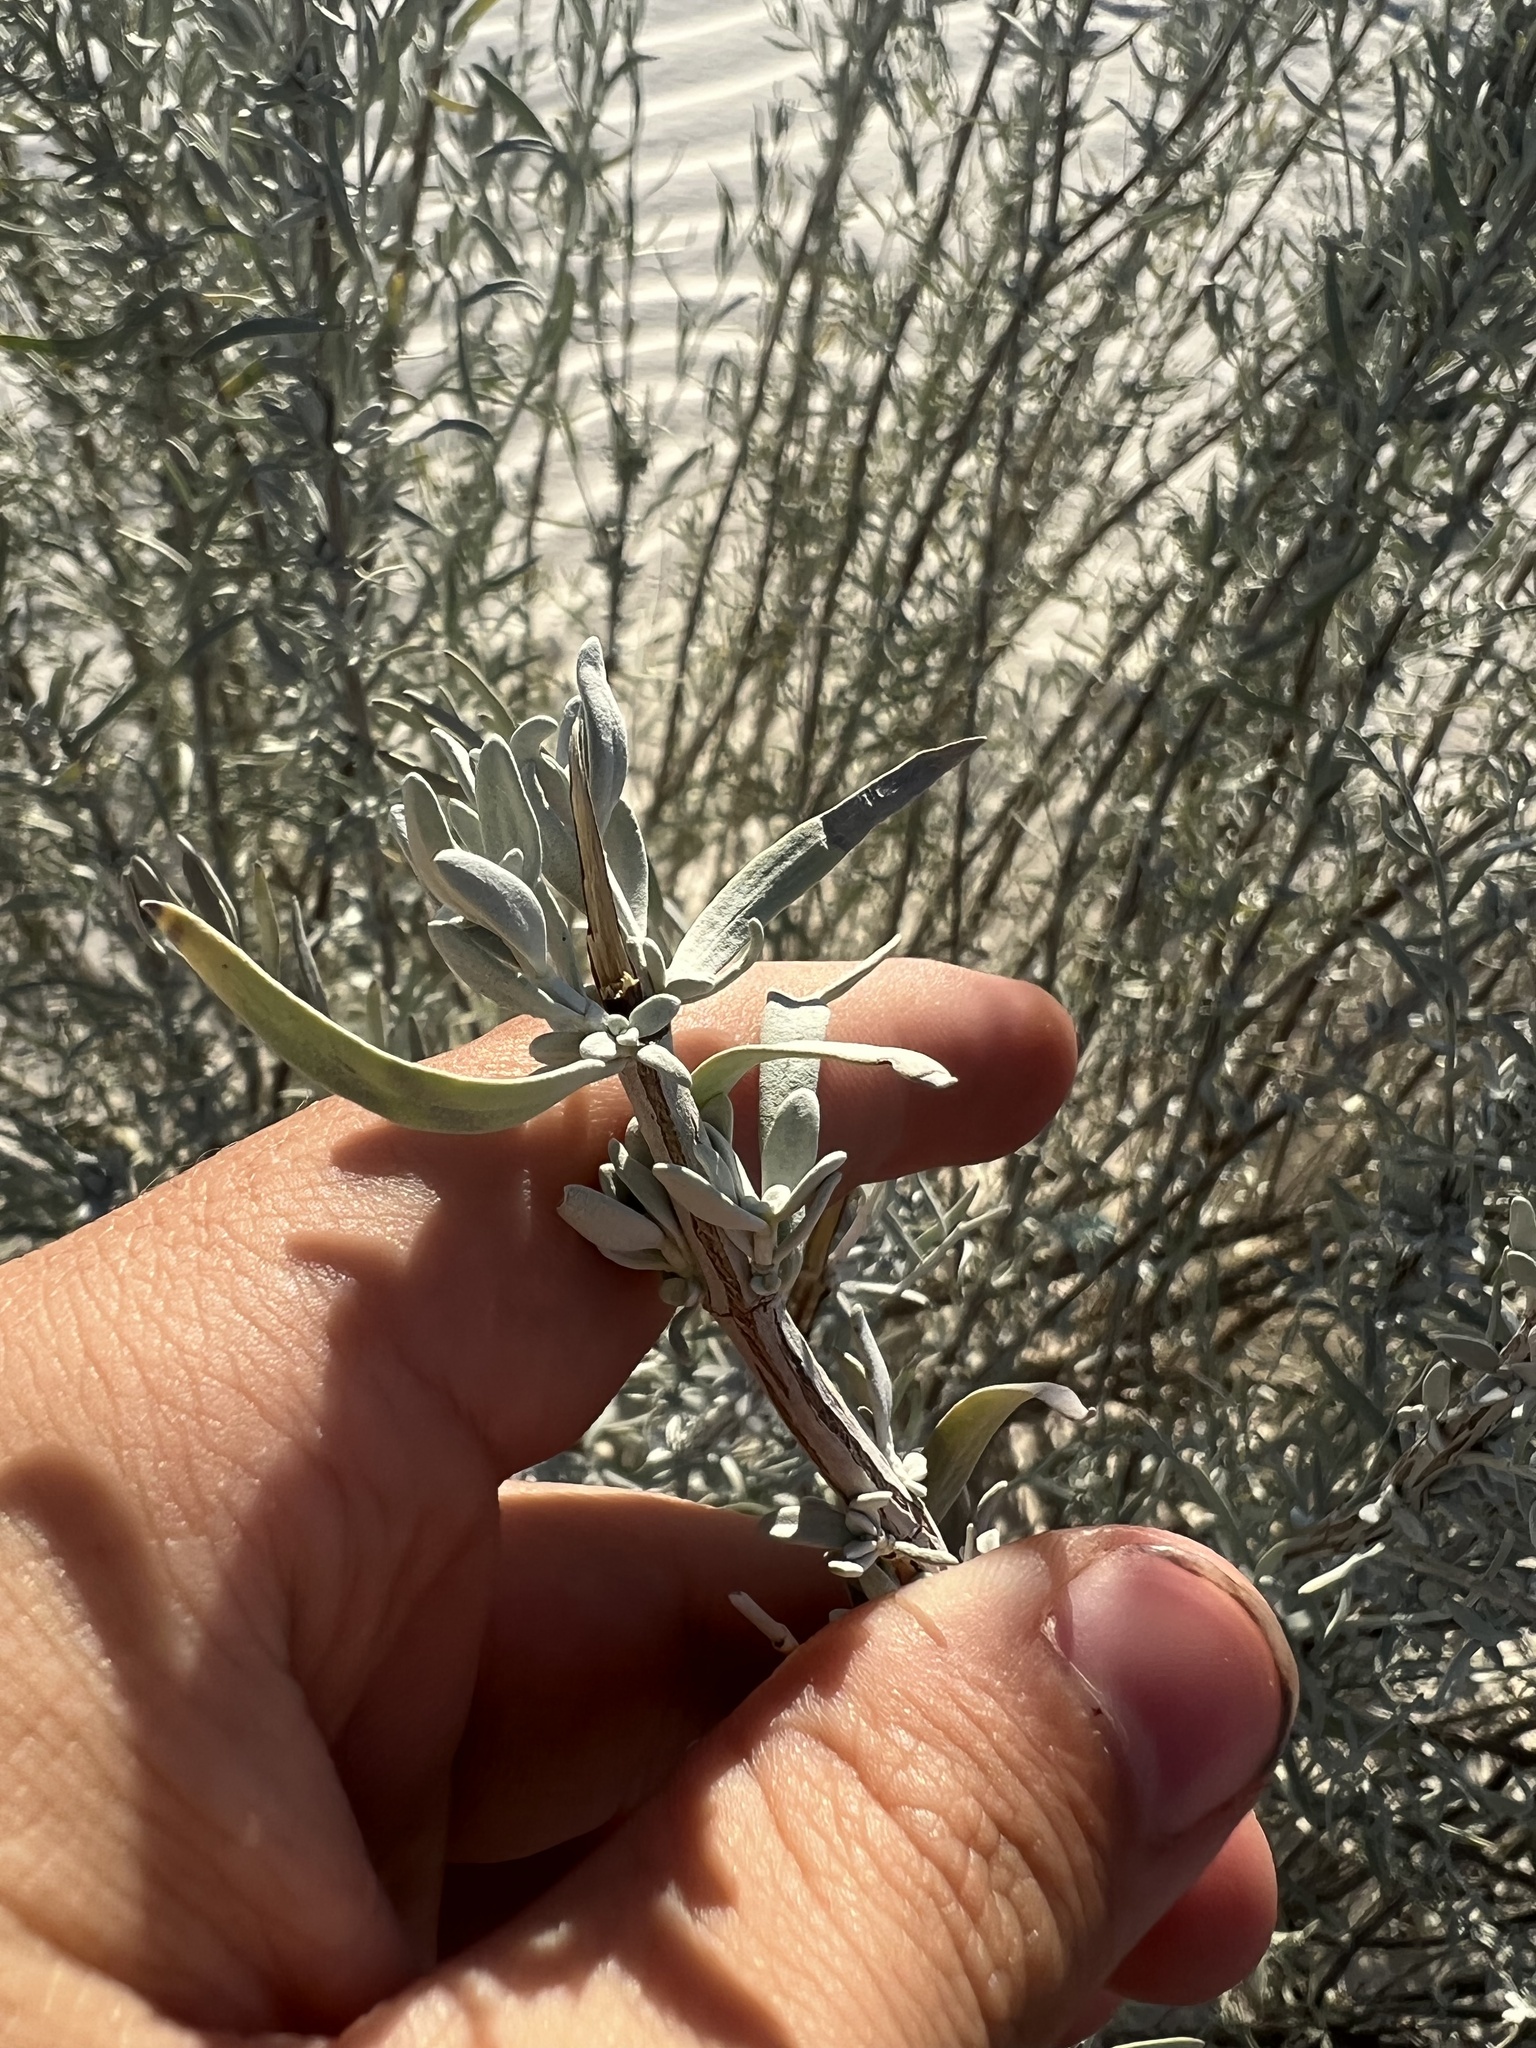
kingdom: Plantae
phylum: Tracheophyta
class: Magnoliopsida
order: Lamiales
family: Lamiaceae
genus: Poliomintha
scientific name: Poliomintha incana
